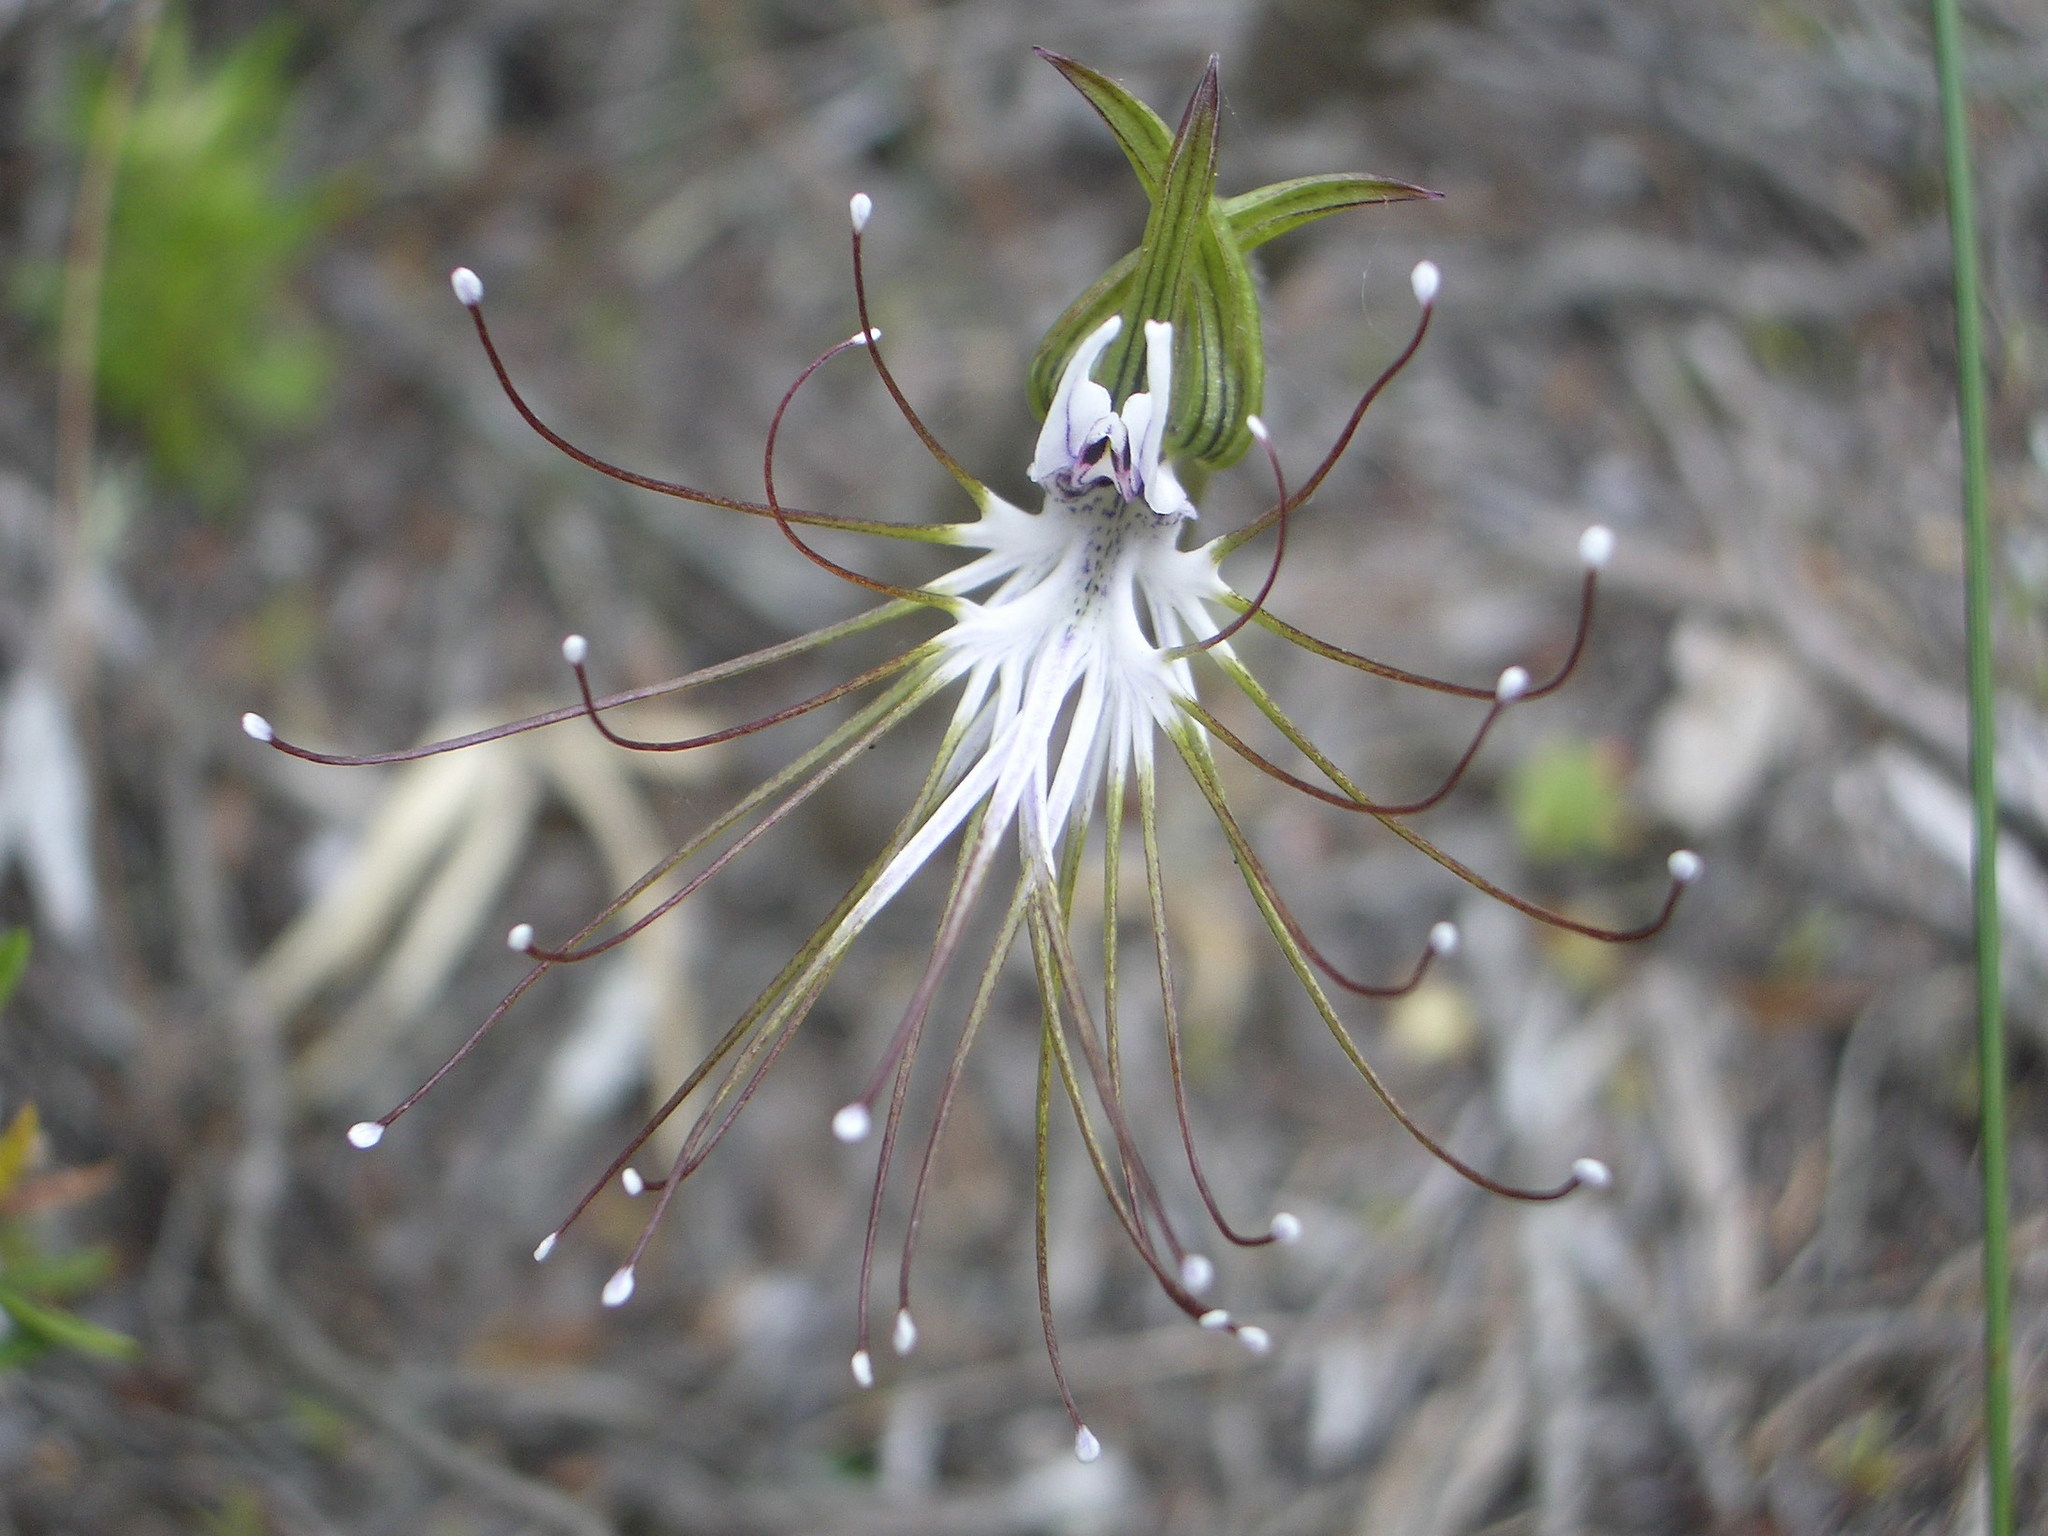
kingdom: Plantae
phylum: Tracheophyta
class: Liliopsida
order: Asparagales
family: Orchidaceae
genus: Holothrix
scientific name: Holothrix etheliae
